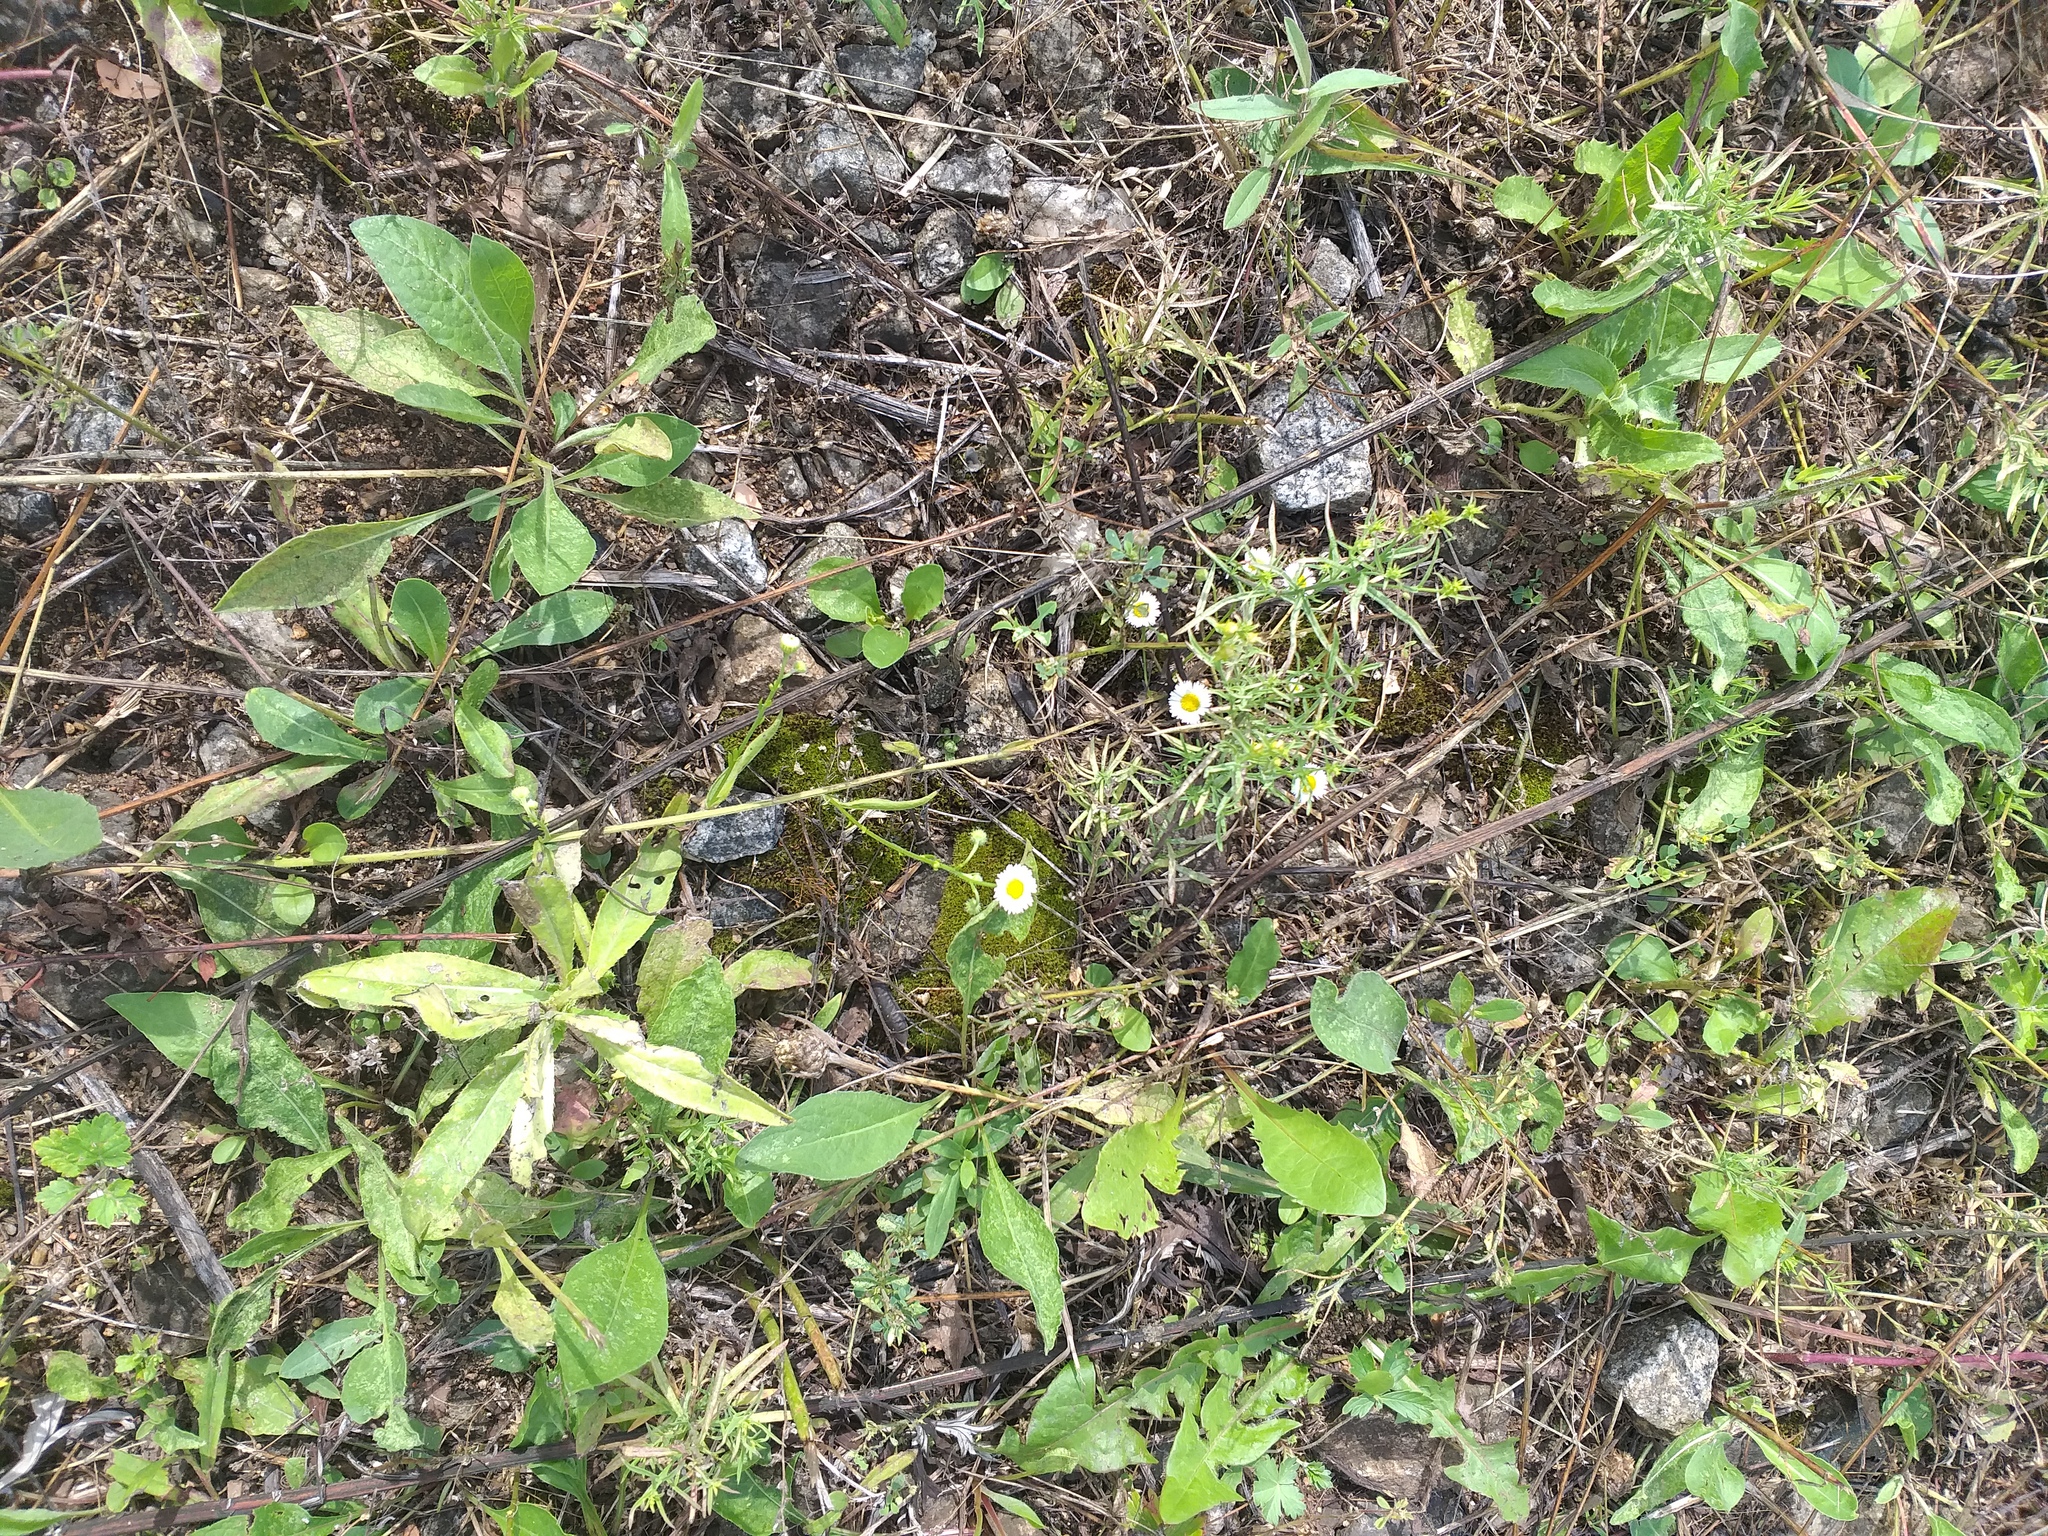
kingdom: Plantae
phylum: Tracheophyta
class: Magnoliopsida
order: Asterales
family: Asteraceae
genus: Erigeron
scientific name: Erigeron annuus
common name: Tall fleabane
